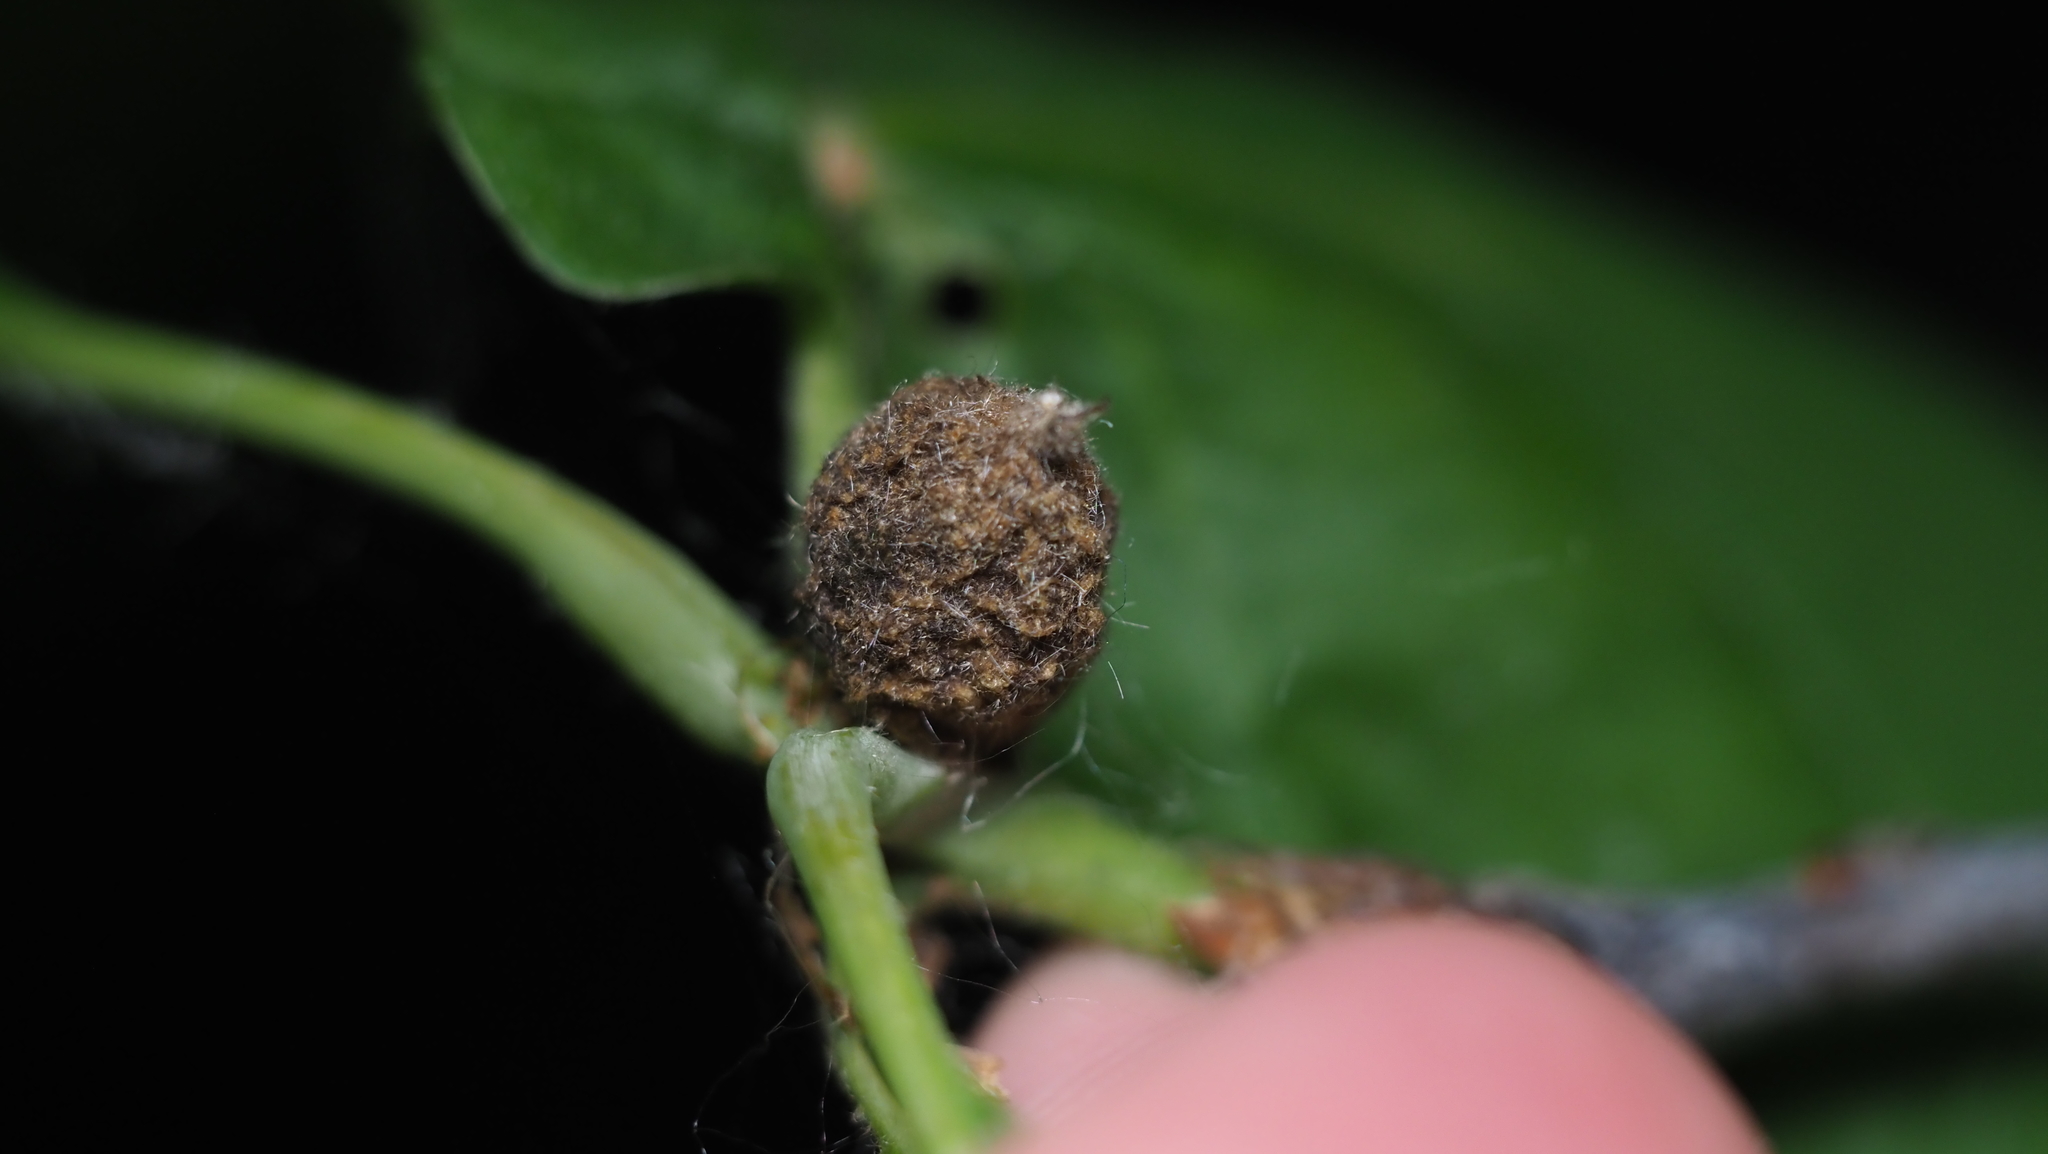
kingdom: Animalia
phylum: Arthropoda
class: Insecta
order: Hymenoptera
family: Cynipidae
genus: Dryocosmus
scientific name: Dryocosmus quercuspalustris
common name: Succulent oak gall wasp
